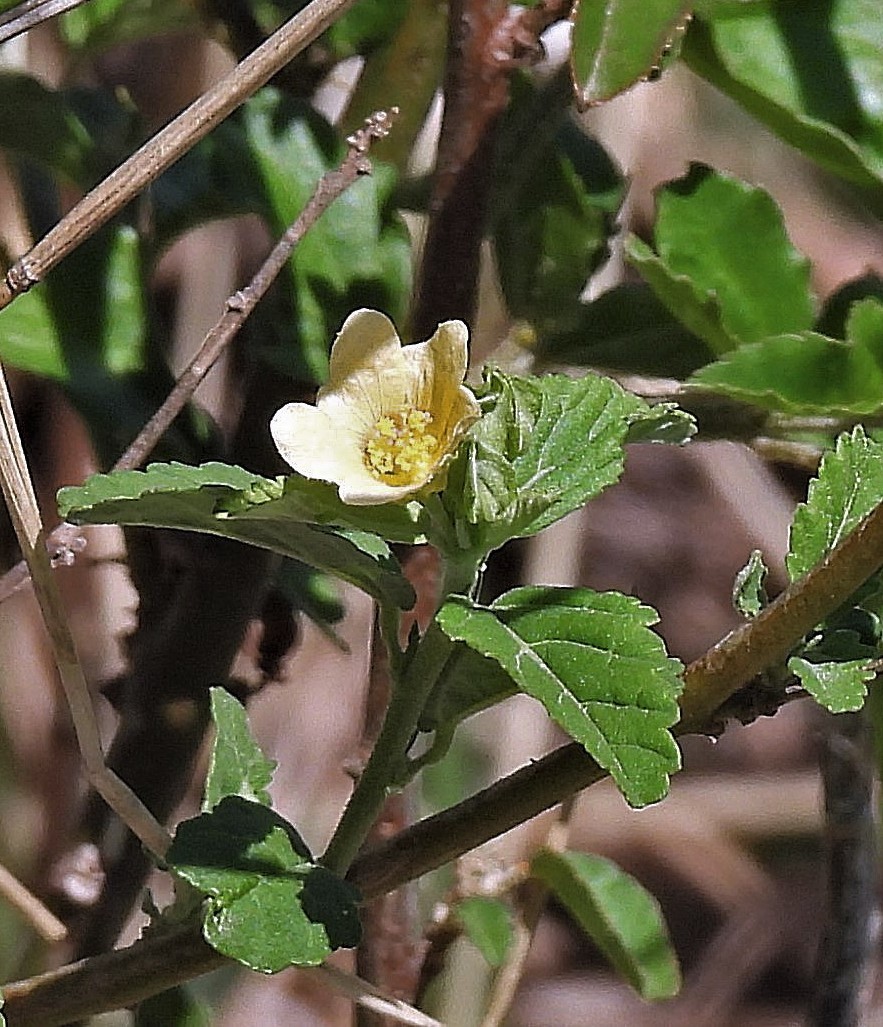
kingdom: Plantae
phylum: Tracheophyta
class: Magnoliopsida
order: Malvales
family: Malvaceae
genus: Sida
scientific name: Sida rhombifolia
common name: Queensland-hemp
